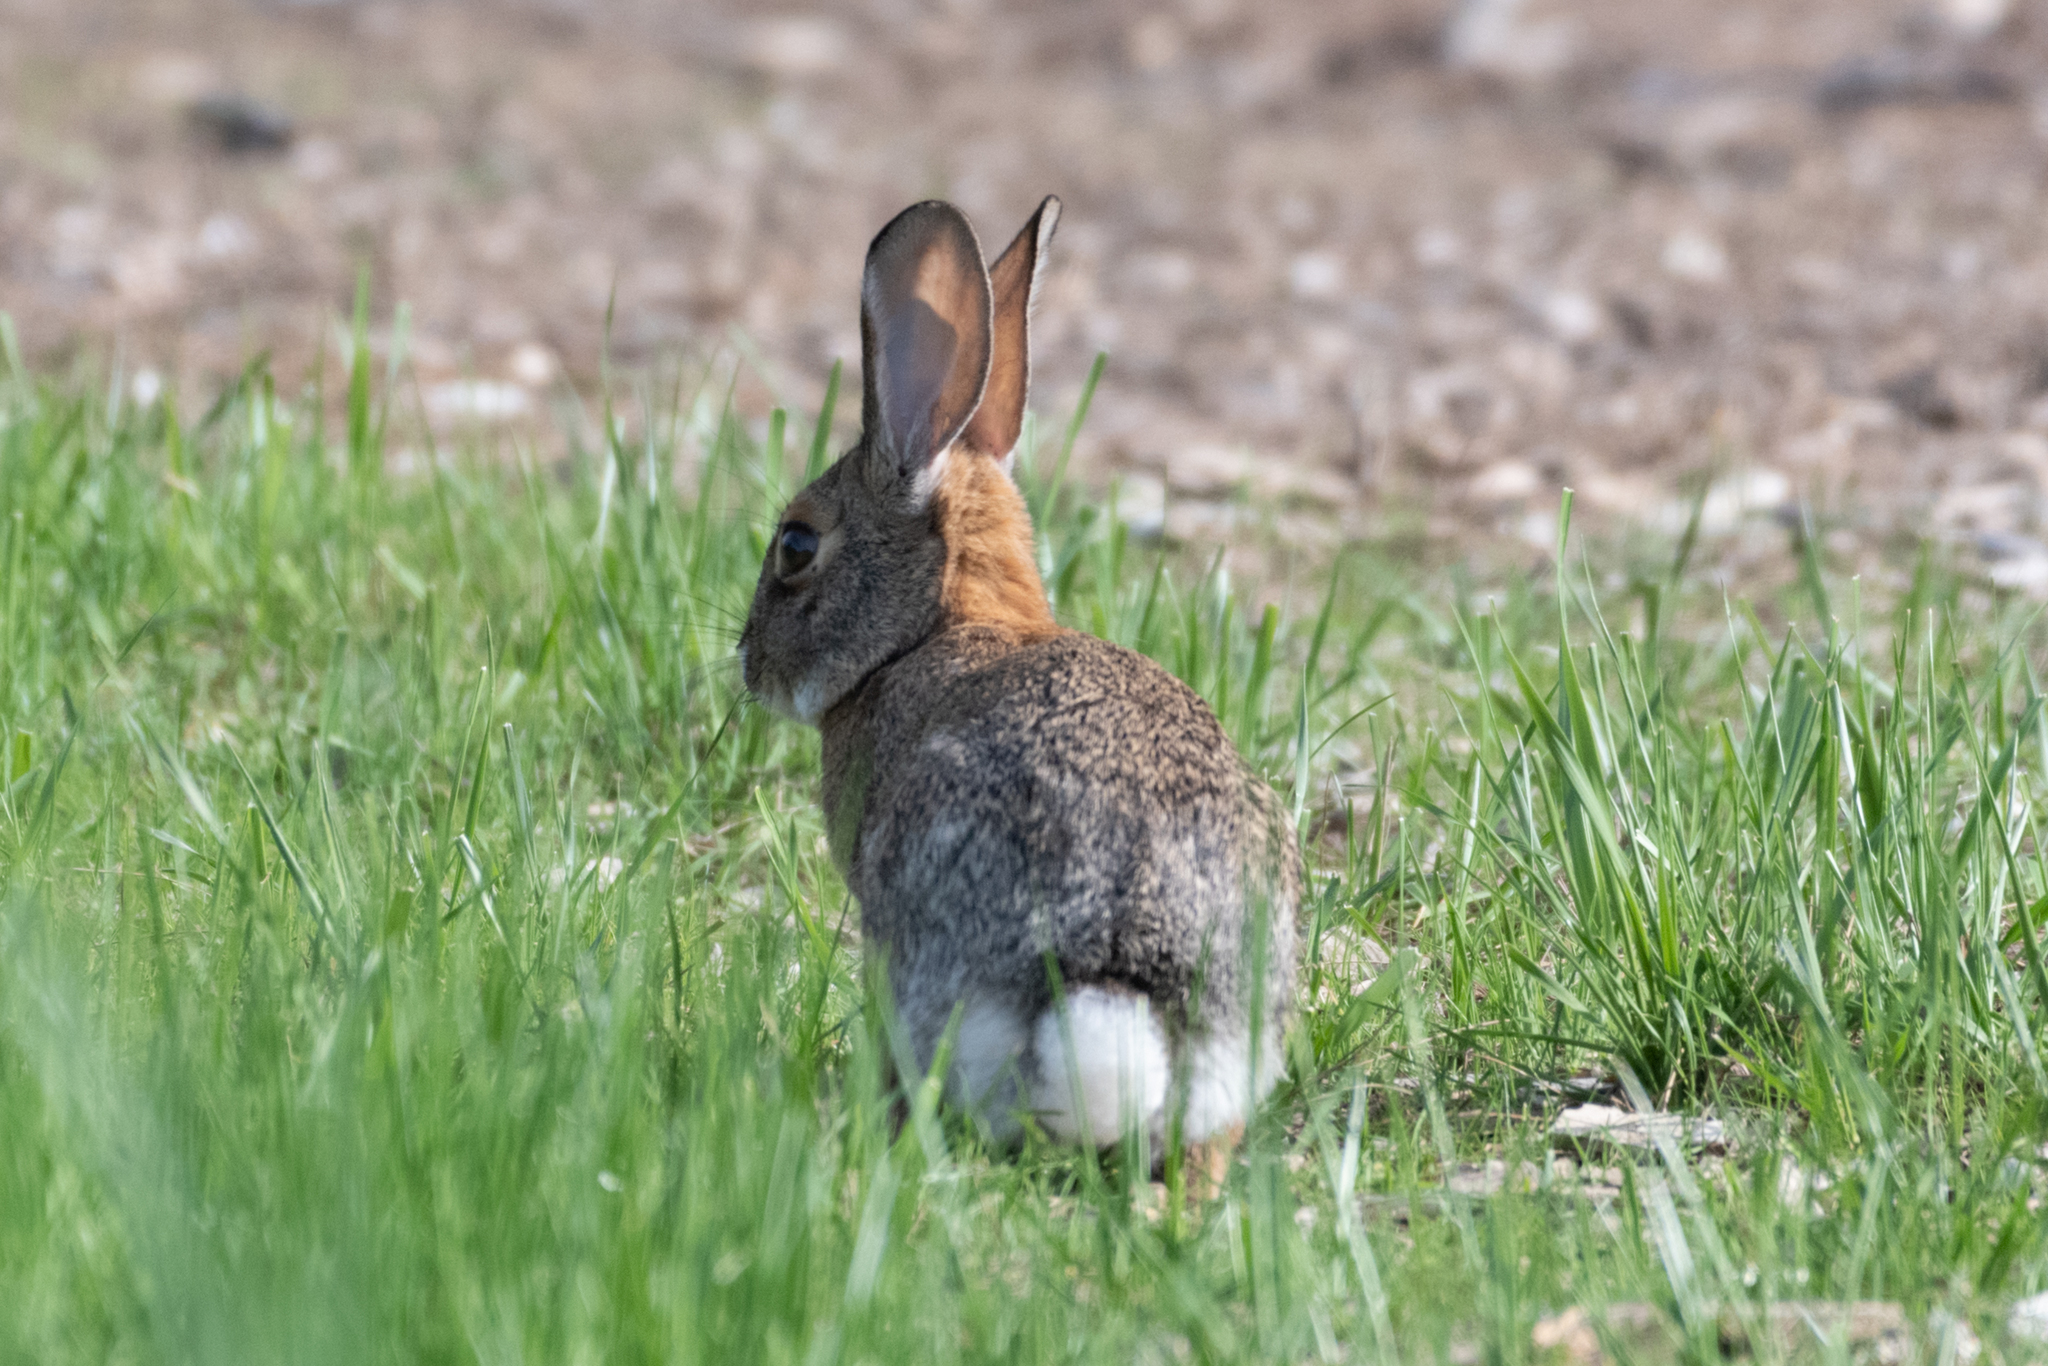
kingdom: Animalia
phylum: Chordata
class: Mammalia
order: Lagomorpha
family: Leporidae
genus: Sylvilagus
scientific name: Sylvilagus audubonii
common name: Desert cottontail
